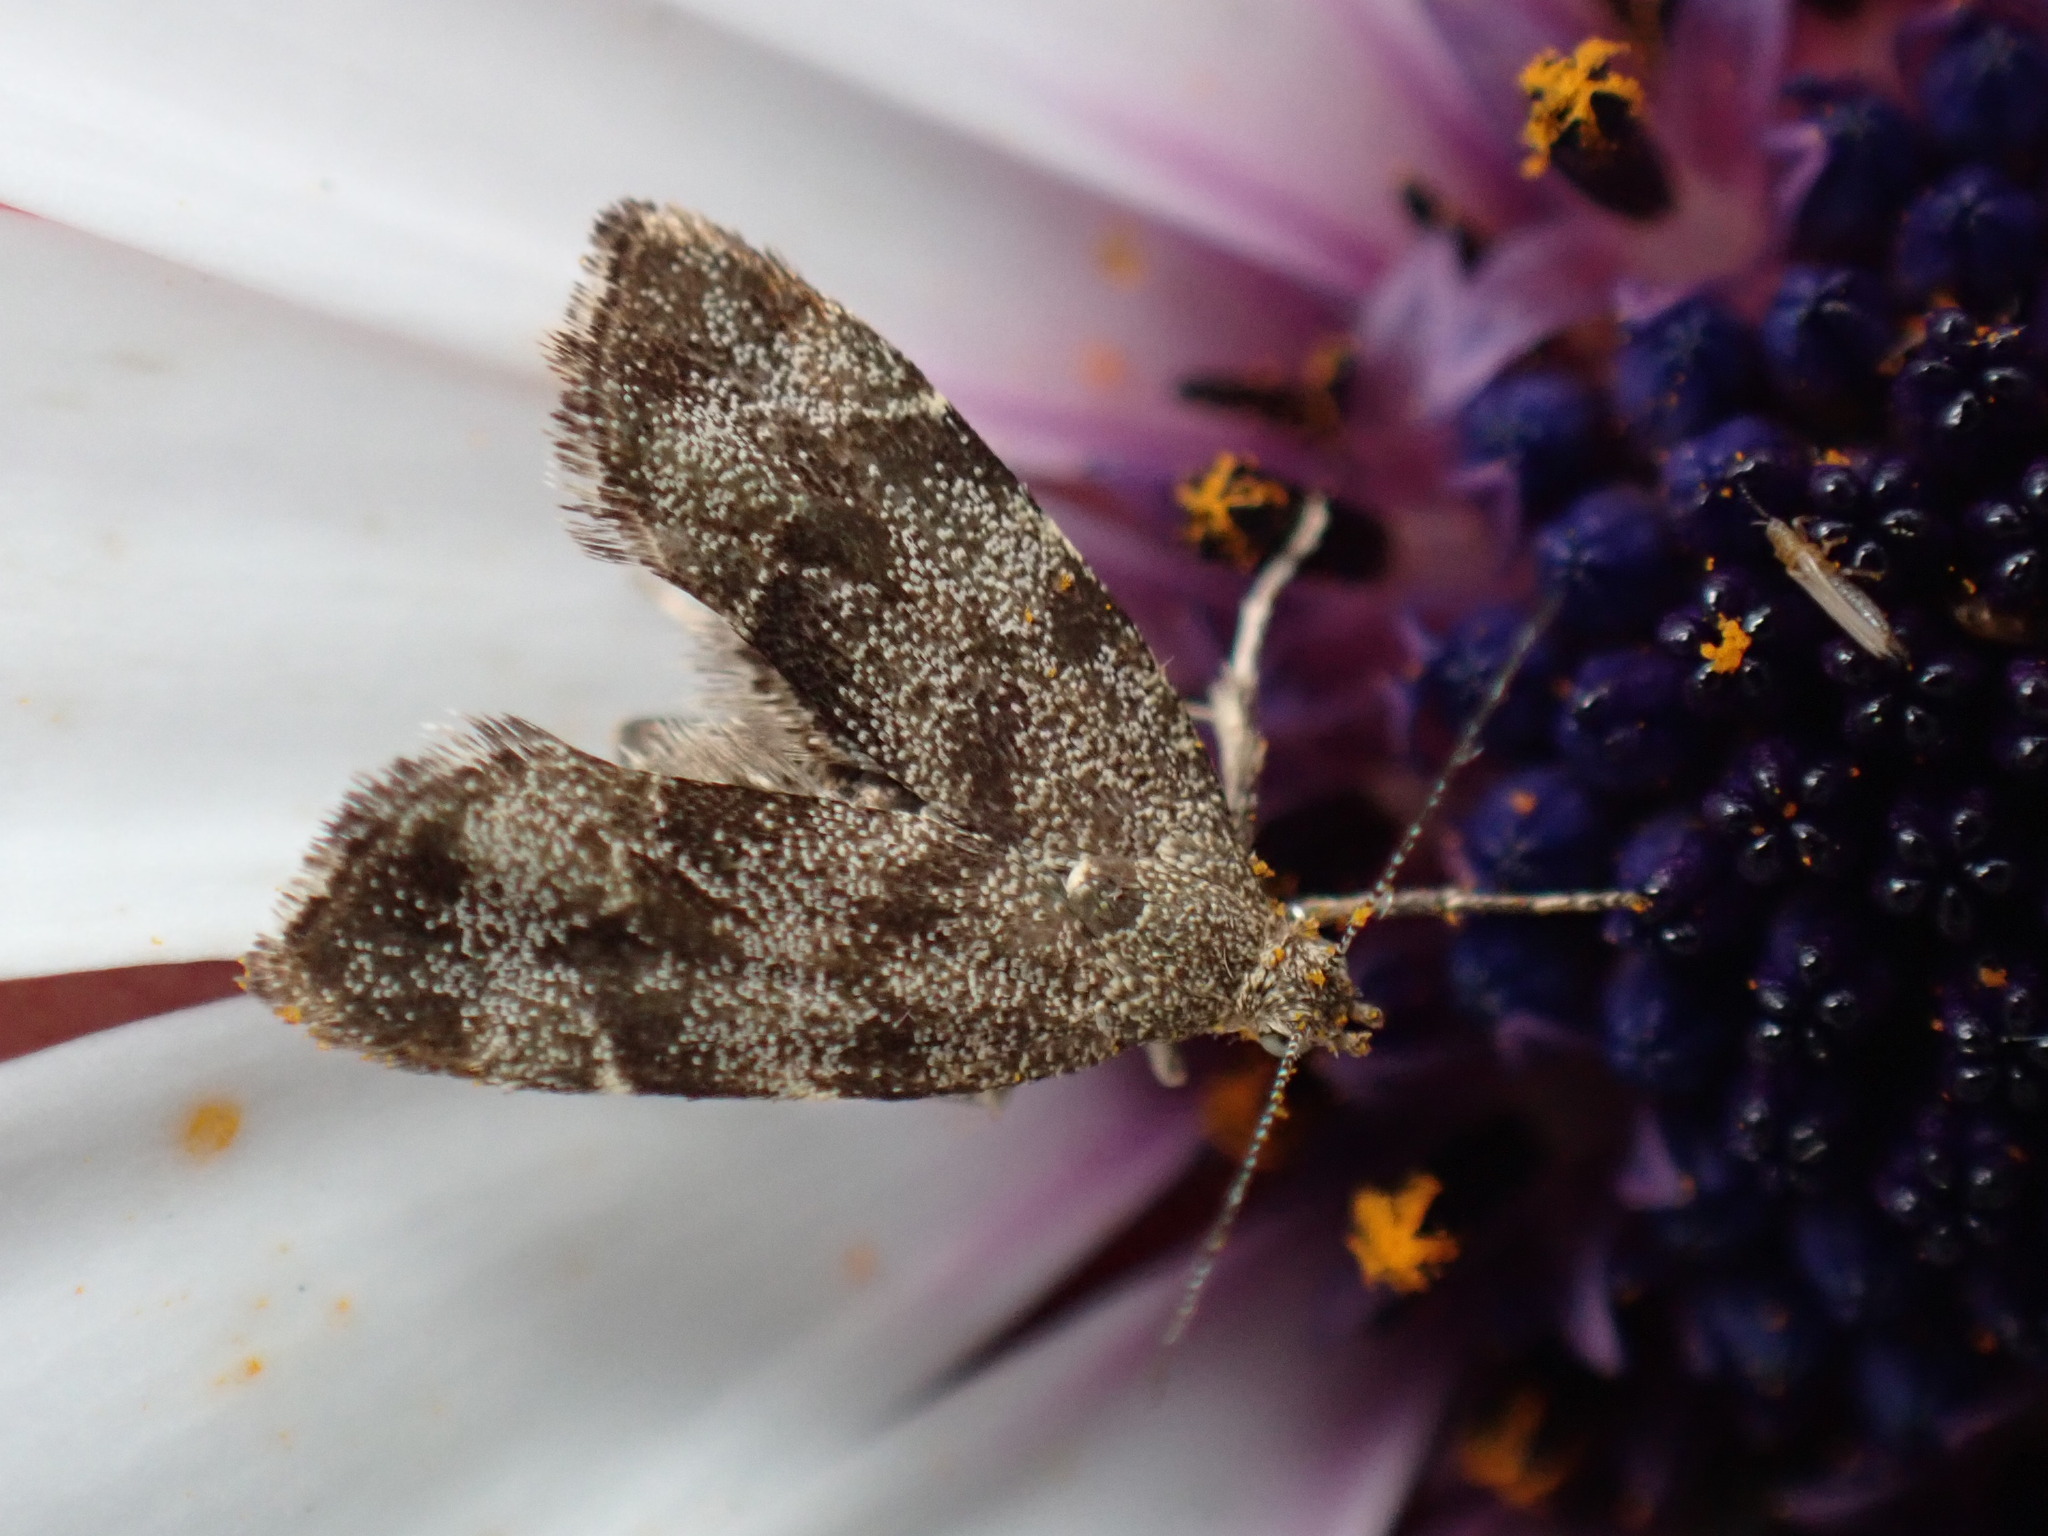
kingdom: Animalia
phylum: Arthropoda
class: Insecta
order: Lepidoptera
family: Choreutidae
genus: Anthophila
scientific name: Anthophila fabriciana
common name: Nettle-tap
